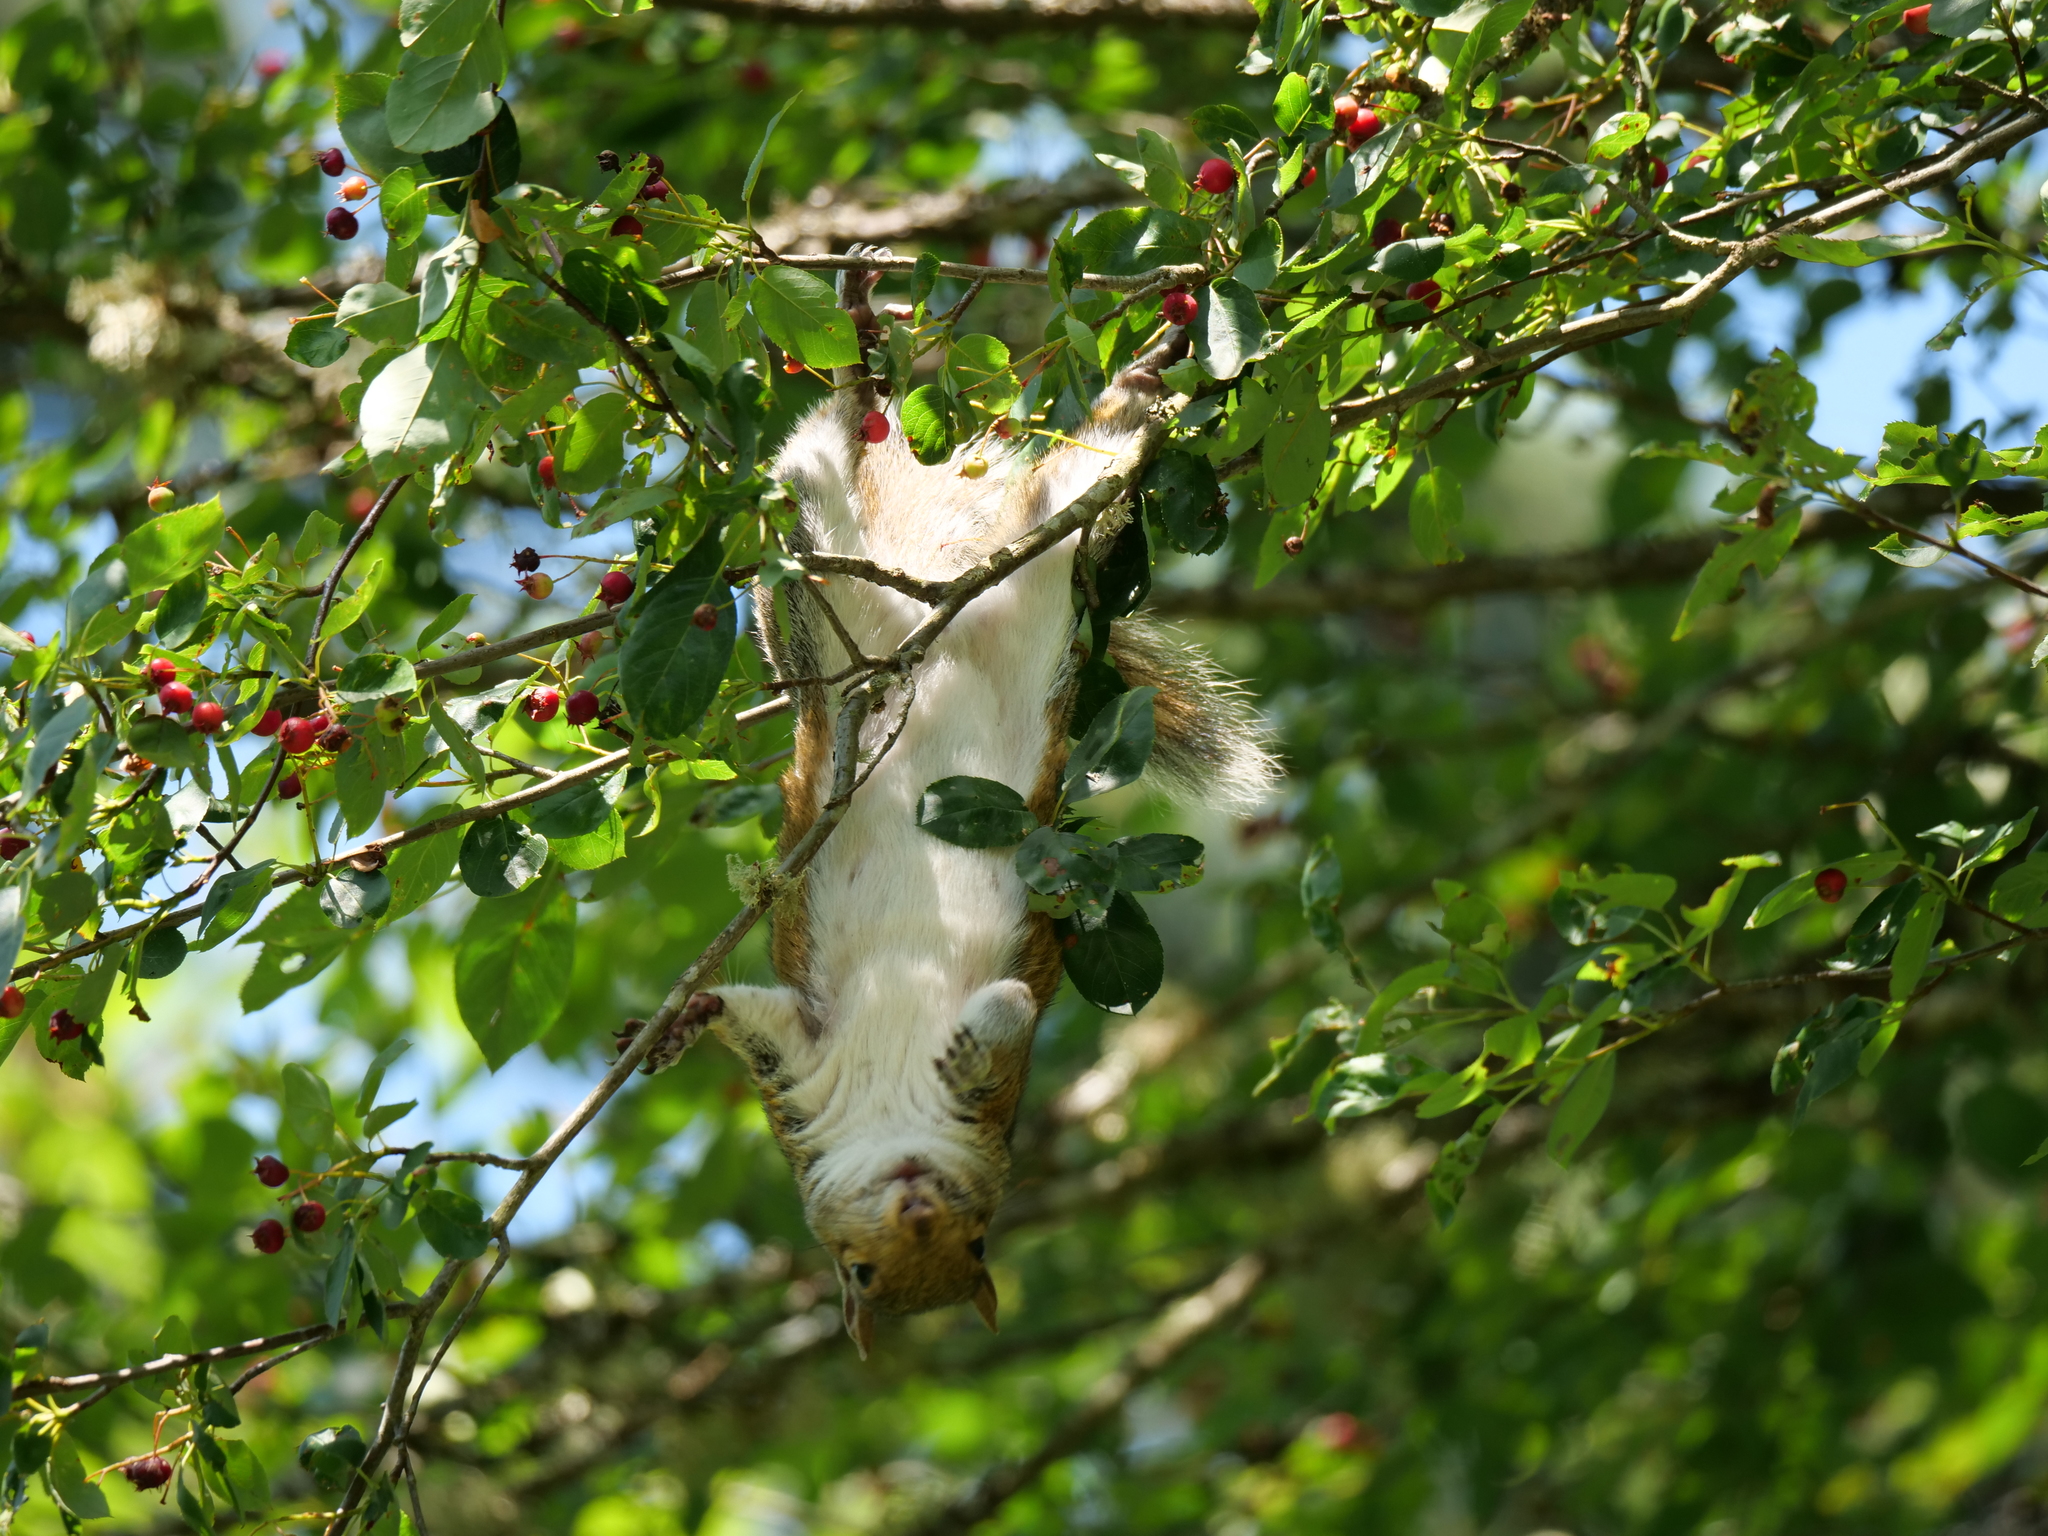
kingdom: Animalia
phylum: Chordata
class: Mammalia
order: Rodentia
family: Sciuridae
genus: Sciurus
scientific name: Sciurus carolinensis
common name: Eastern gray squirrel
